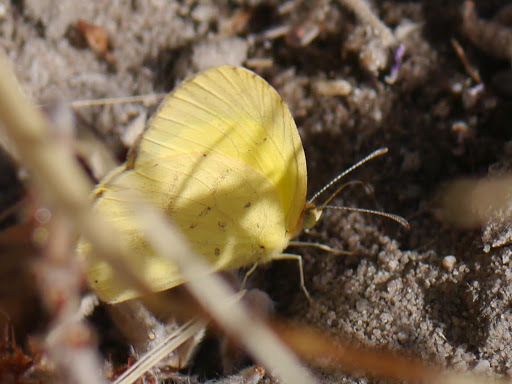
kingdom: Animalia
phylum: Arthropoda
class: Insecta
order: Lepidoptera
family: Pieridae
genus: Eurema
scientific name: Eurema brigitta
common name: Small grass yellow
